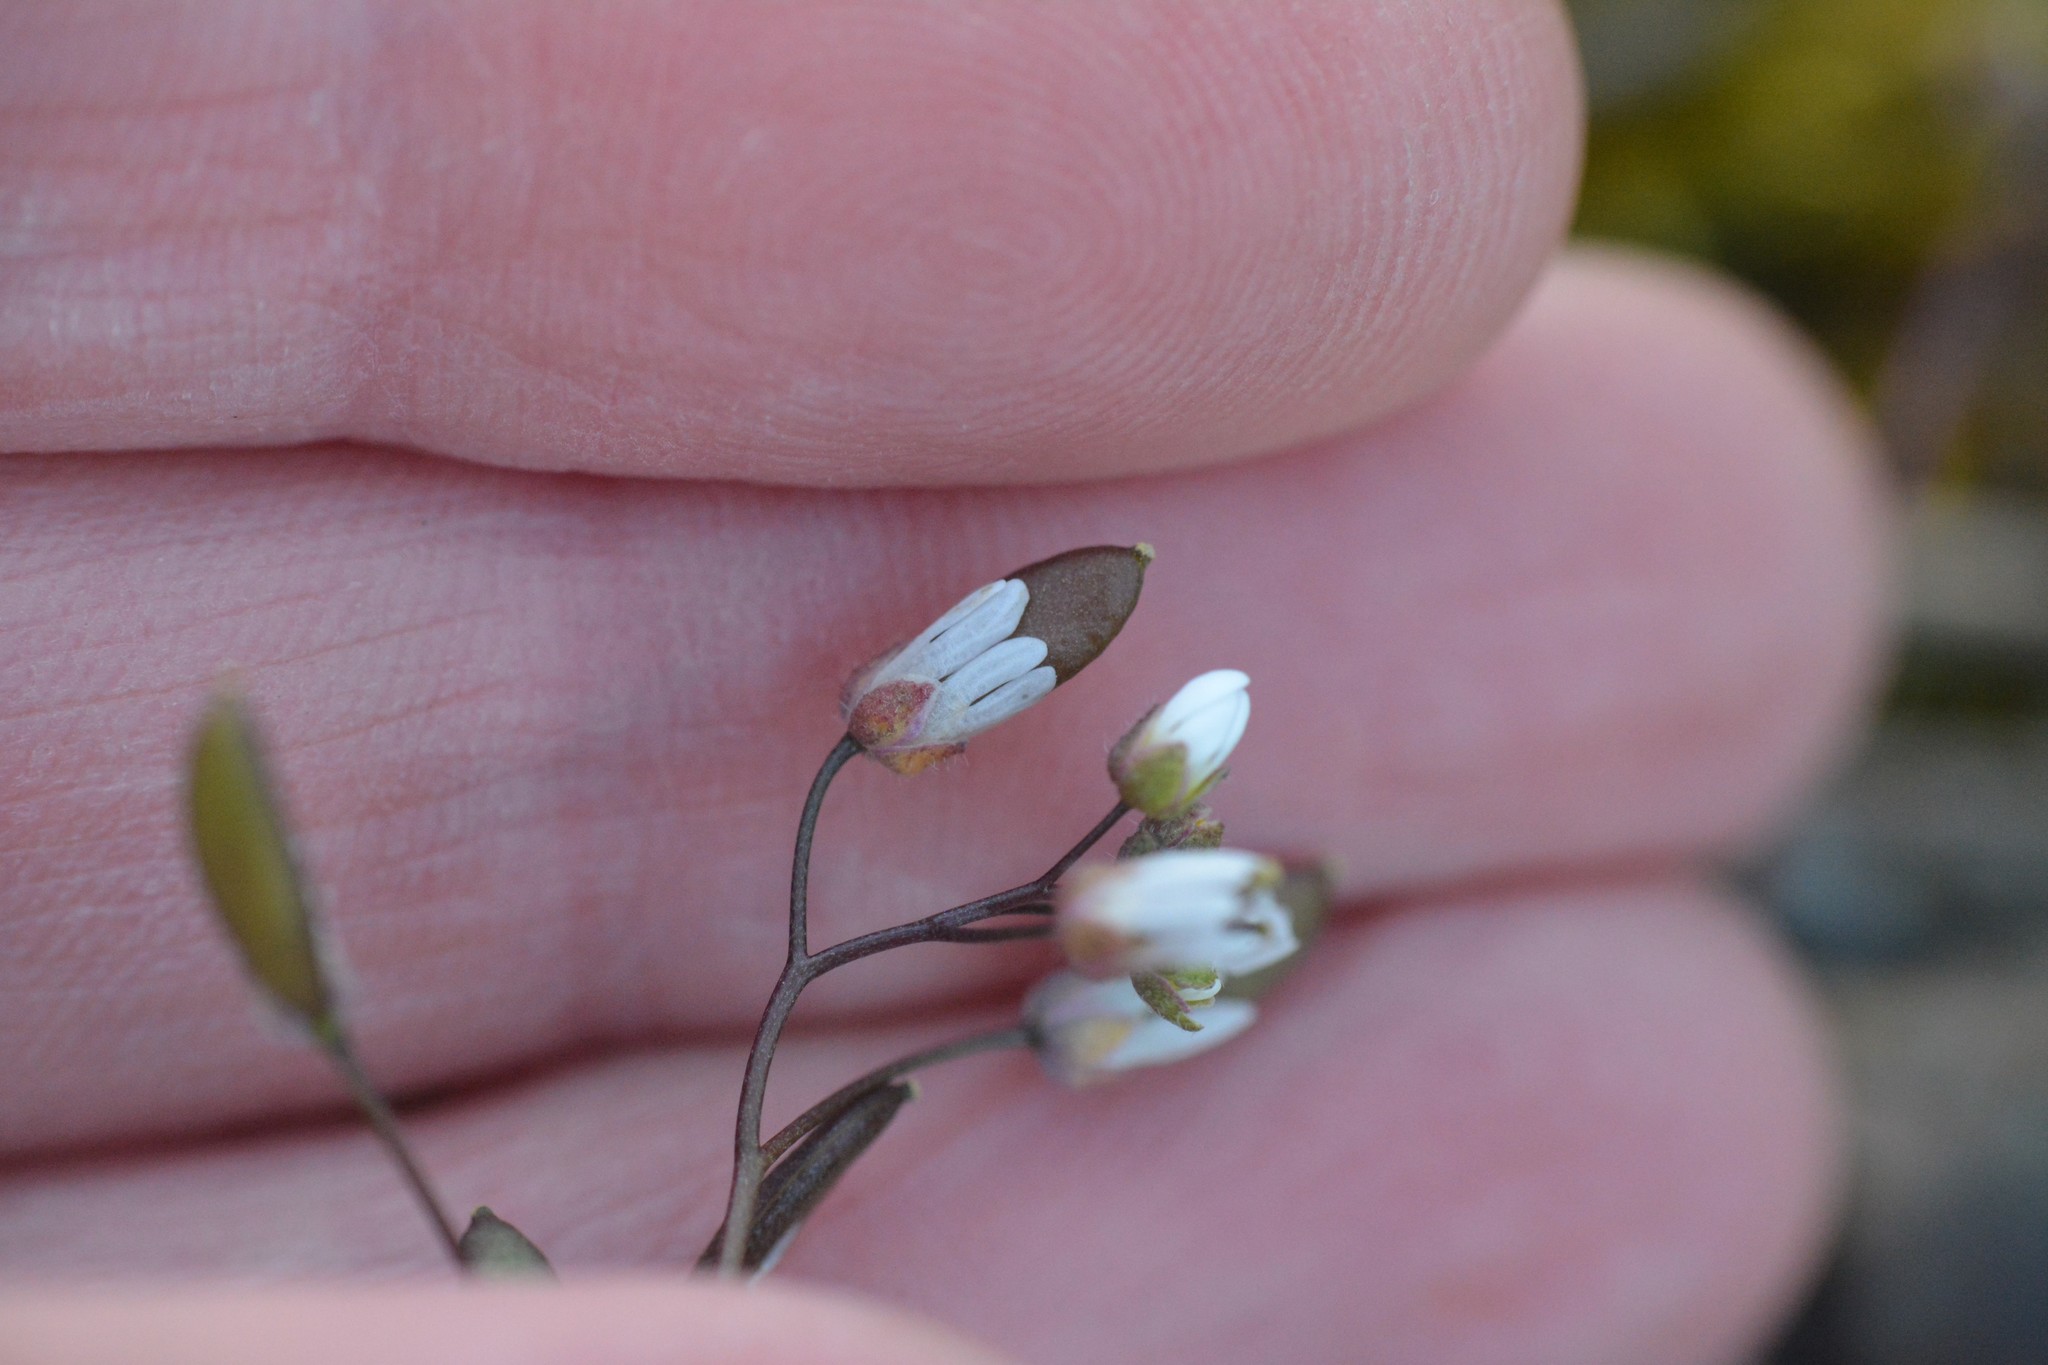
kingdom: Plantae
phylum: Tracheophyta
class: Magnoliopsida
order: Brassicales
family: Brassicaceae
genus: Draba
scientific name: Draba verna
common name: Spring draba
